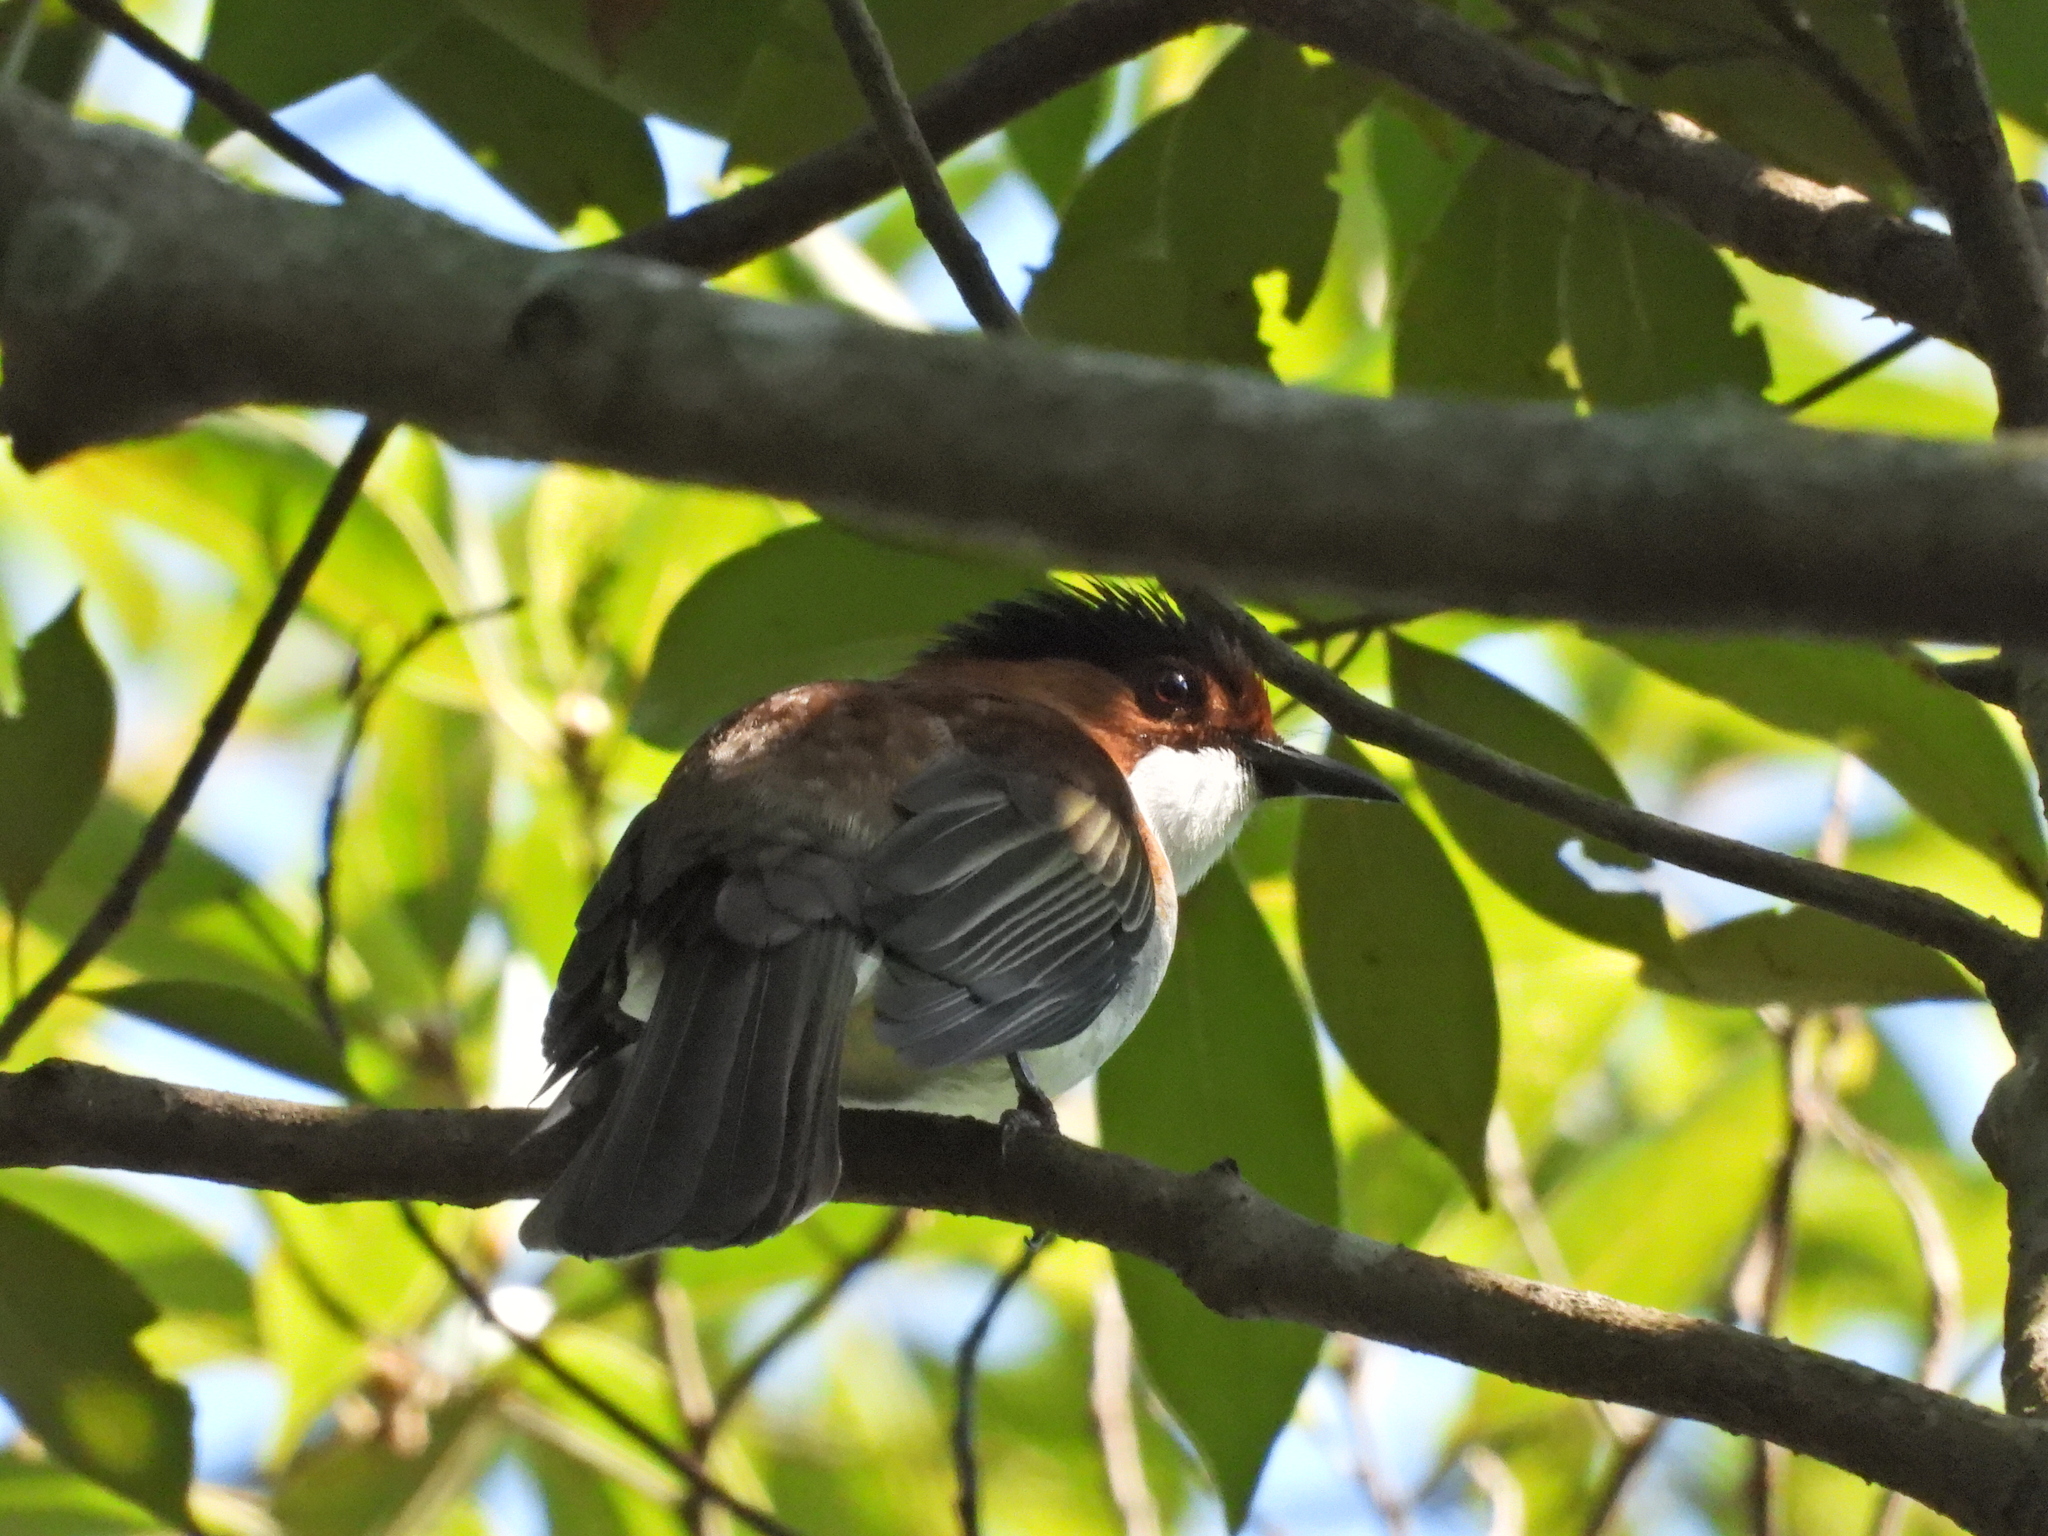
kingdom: Animalia
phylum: Chordata
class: Aves
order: Passeriformes
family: Pycnonotidae
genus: Hemixos
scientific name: Hemixos castanonotus
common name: Chestnut bulbul
